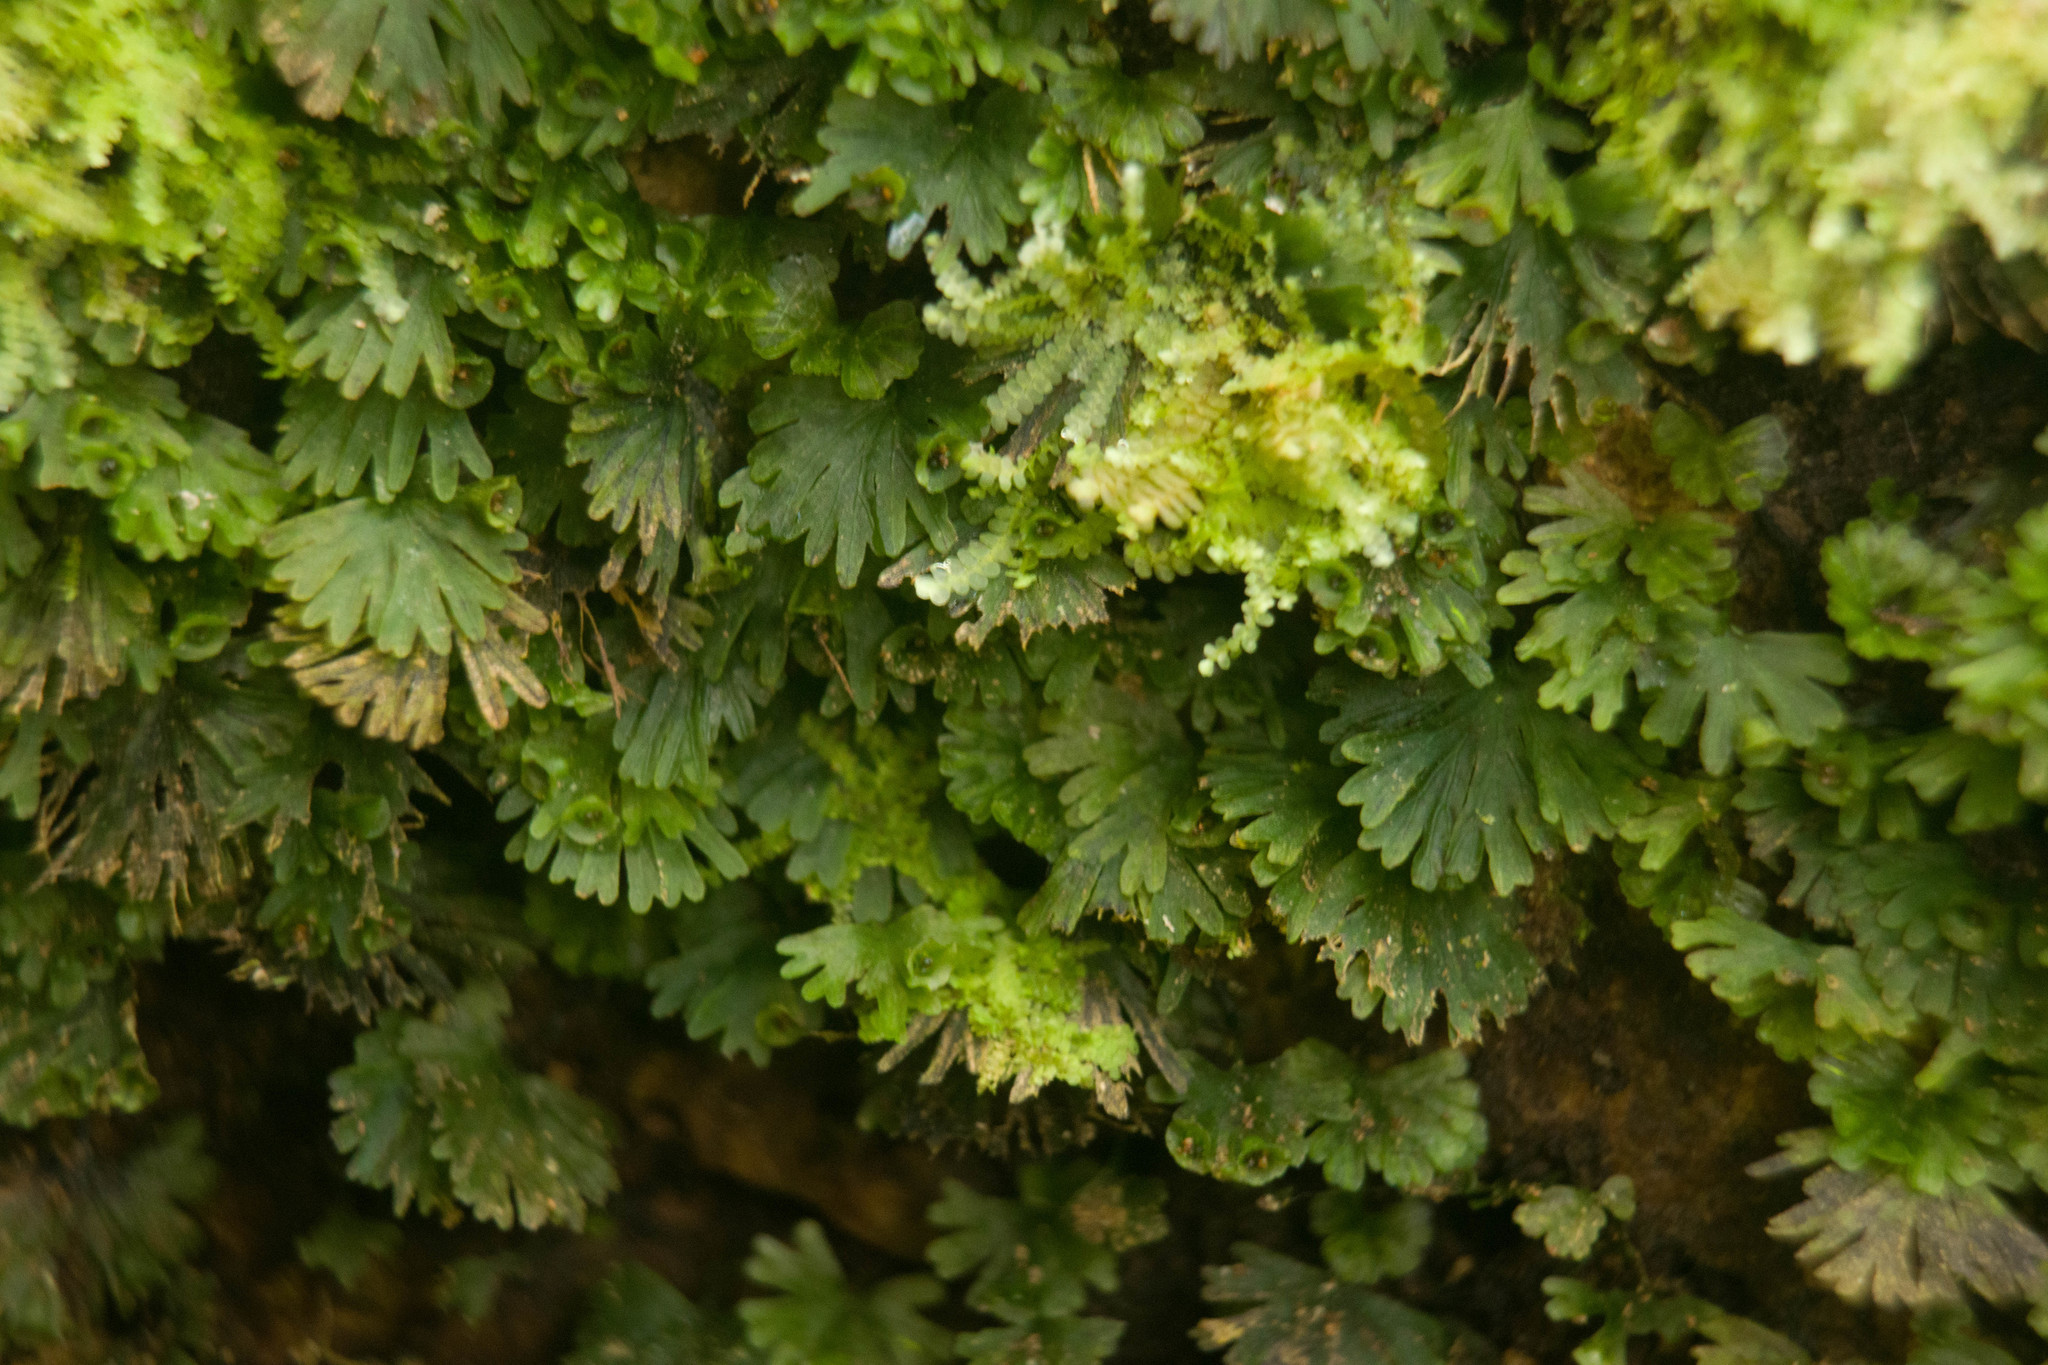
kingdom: Plantae
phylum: Tracheophyta
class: Polypodiopsida
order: Hymenophyllales
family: Hymenophyllaceae
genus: Crepidomanes
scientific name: Crepidomanes parvulum
